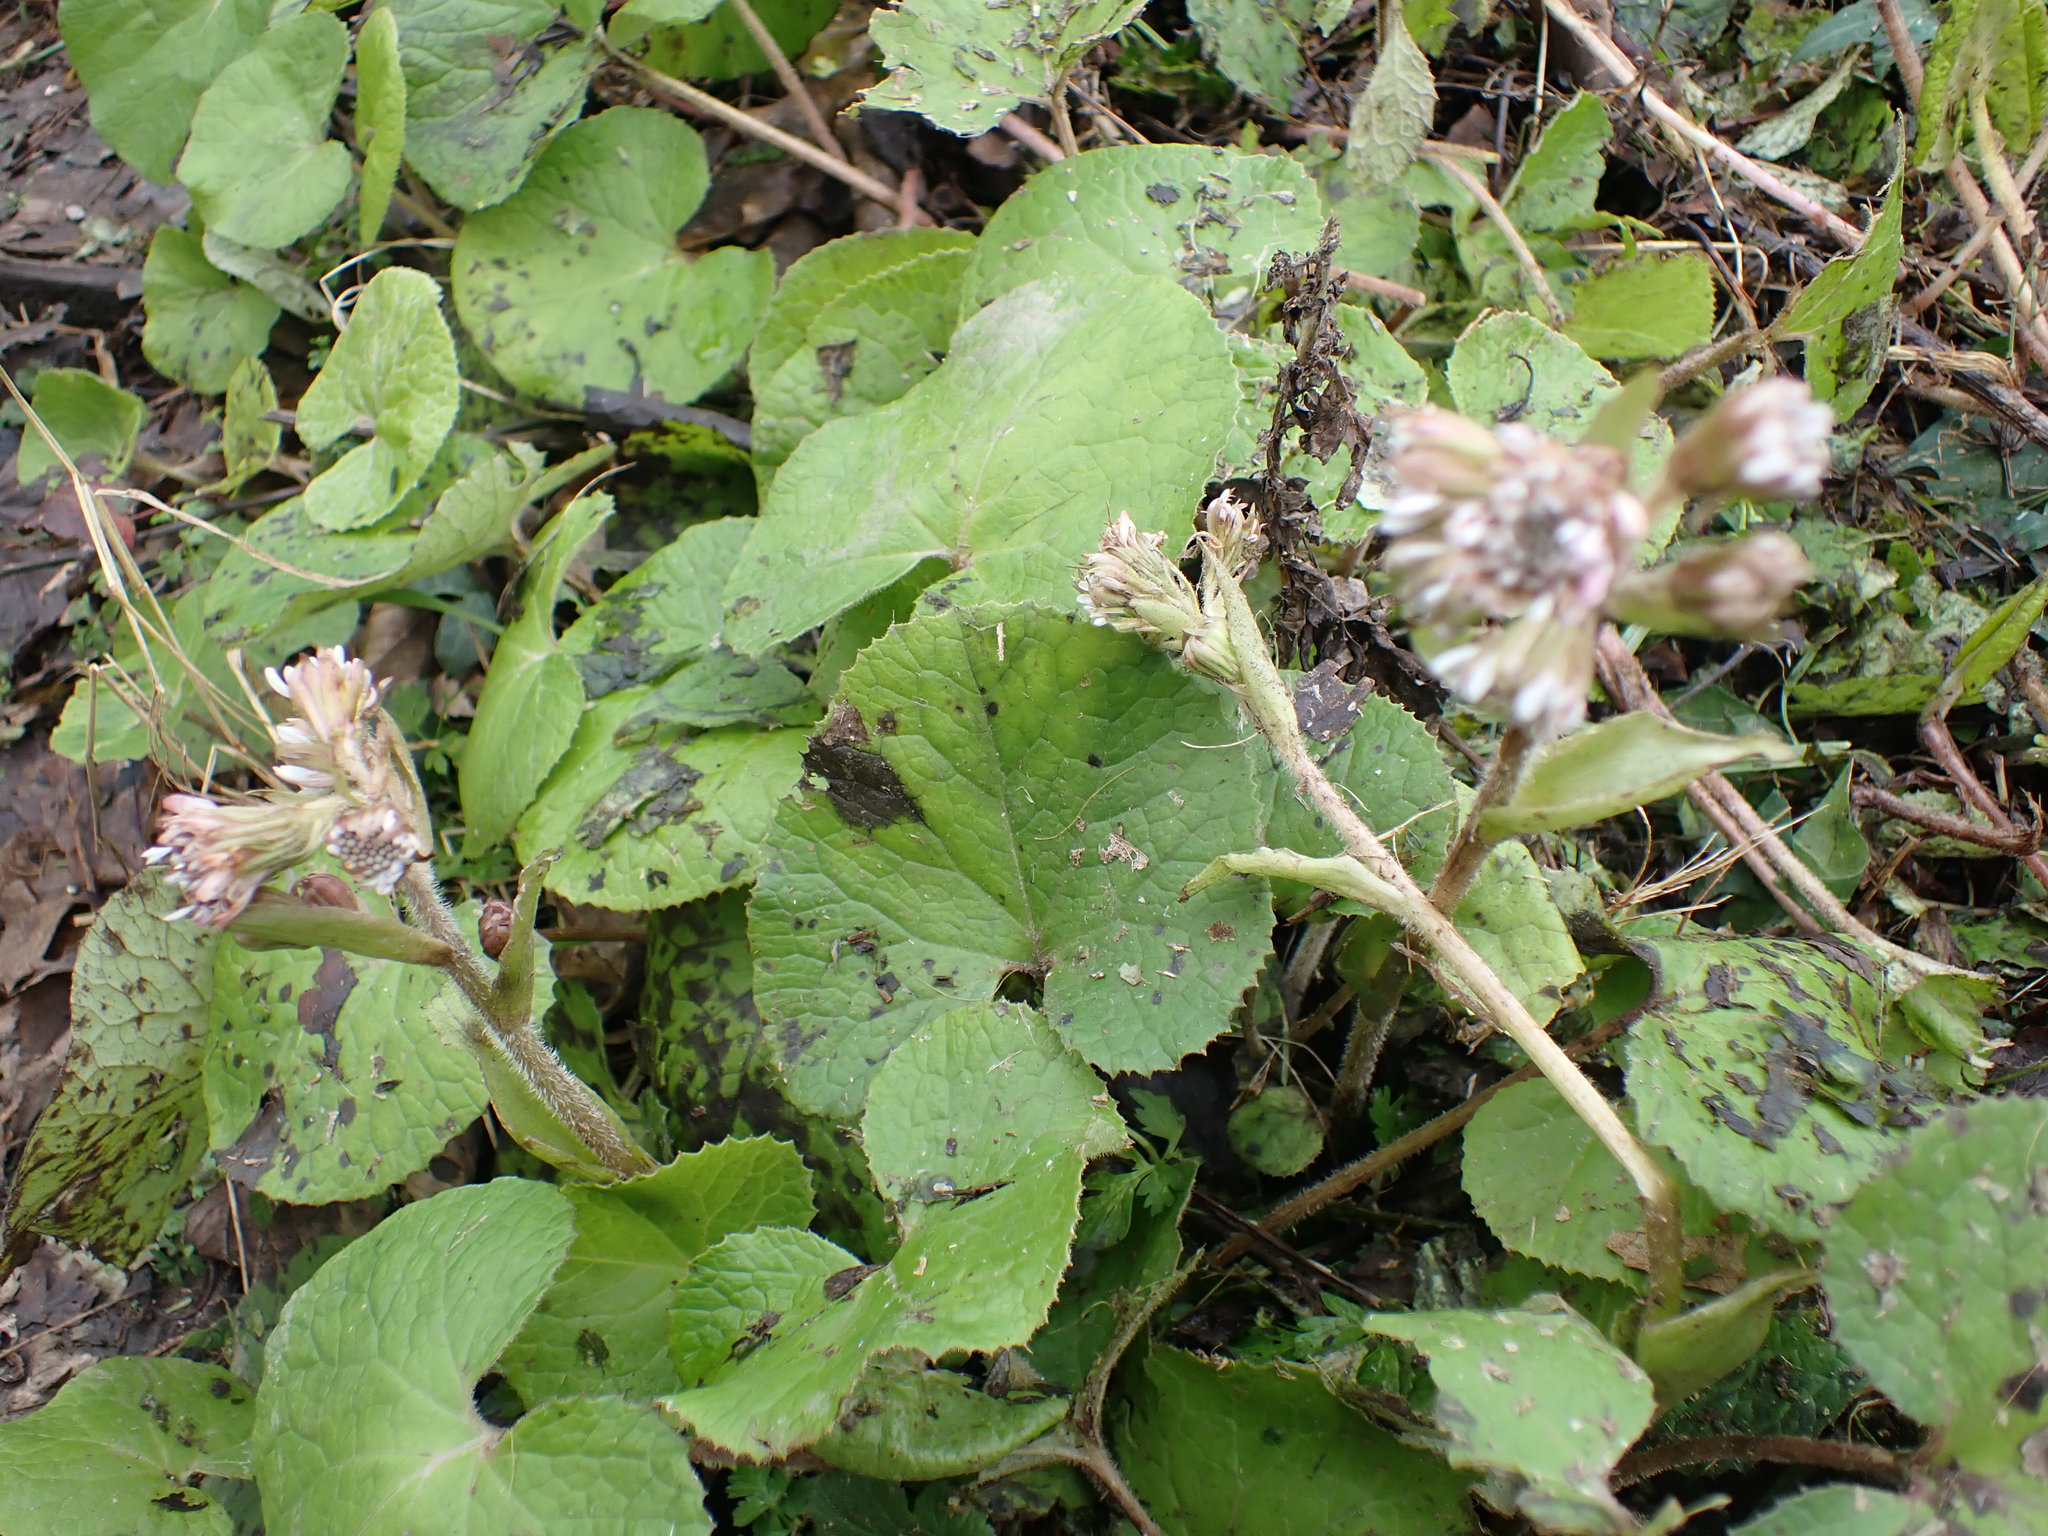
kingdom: Plantae
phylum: Tracheophyta
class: Magnoliopsida
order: Asterales
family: Asteraceae
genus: Petasites
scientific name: Petasites pyrenaicus
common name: Winter heliotrope
